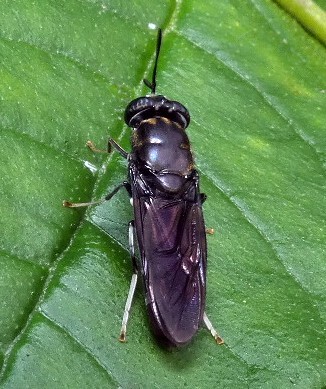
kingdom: Animalia
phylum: Arthropoda
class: Insecta
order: Diptera
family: Stratiomyidae
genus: Hermetia
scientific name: Hermetia illucens
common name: Black soldier fly
